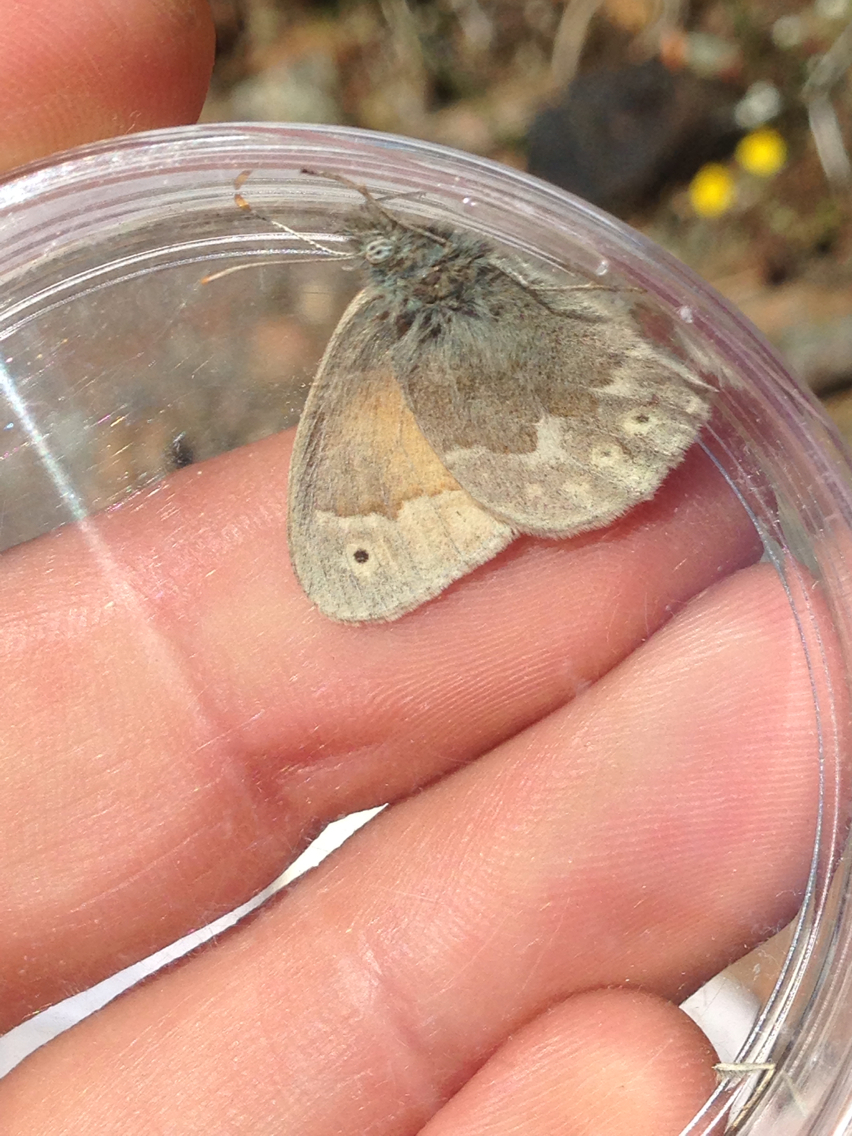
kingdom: Animalia
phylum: Arthropoda
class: Insecta
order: Lepidoptera
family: Nymphalidae
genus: Coenonympha
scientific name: Coenonympha california
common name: Common ringlet
